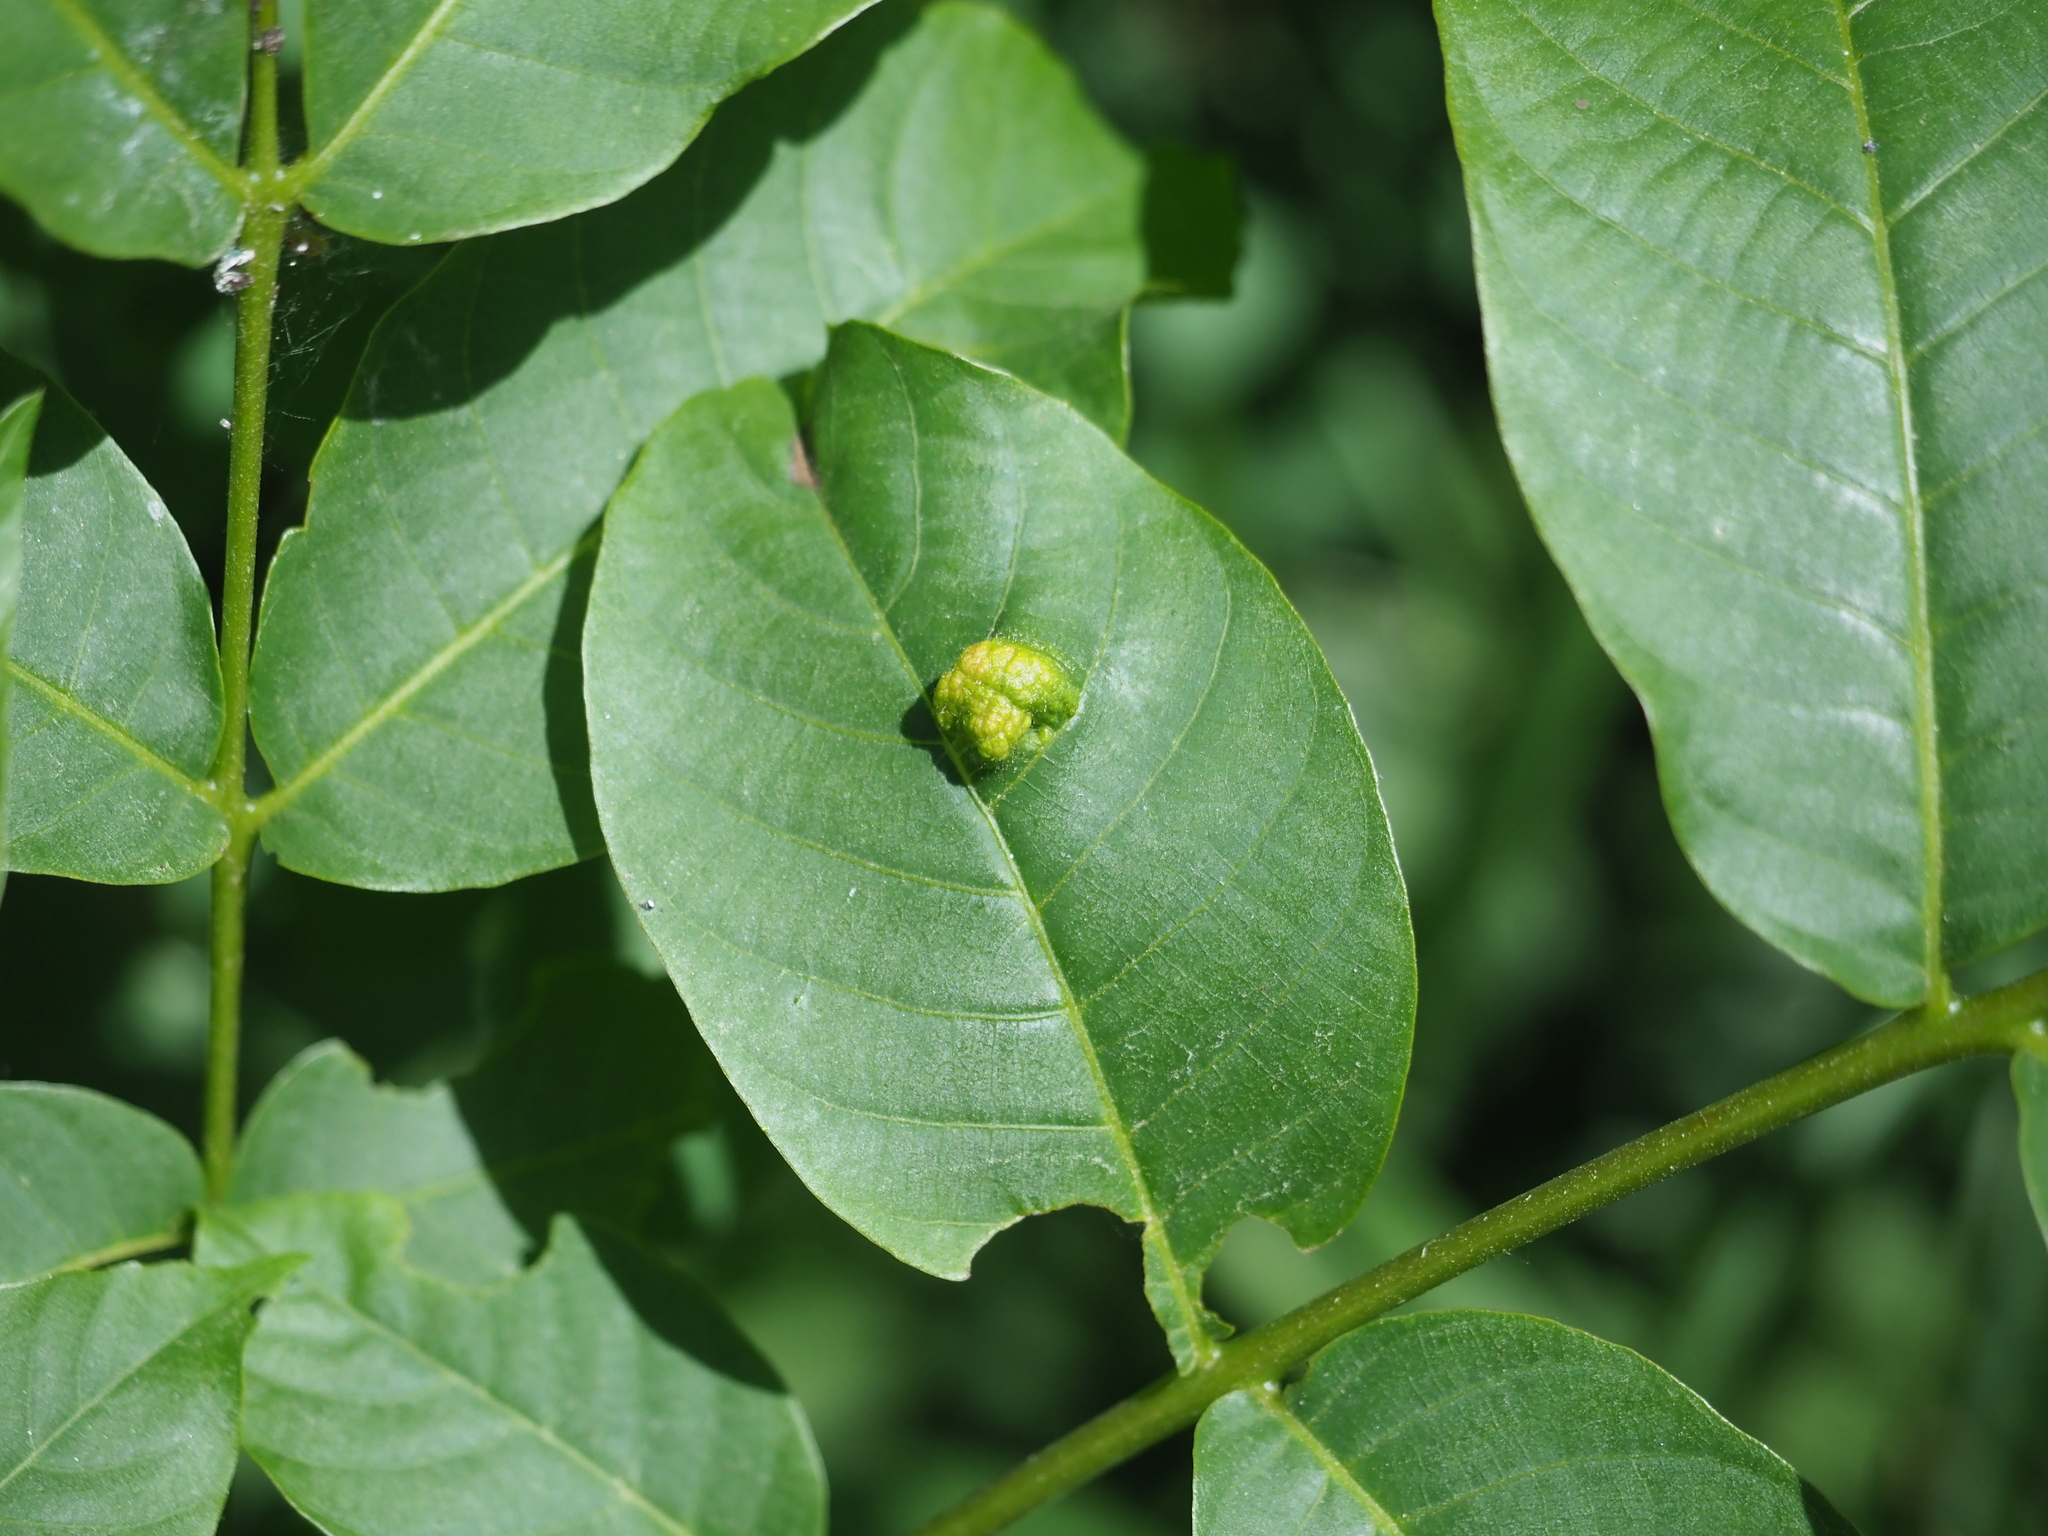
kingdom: Animalia
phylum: Arthropoda
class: Arachnida
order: Trombidiformes
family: Eriophyidae
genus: Aceria
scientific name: Aceria erinea
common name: Persian walnut erineum mite
